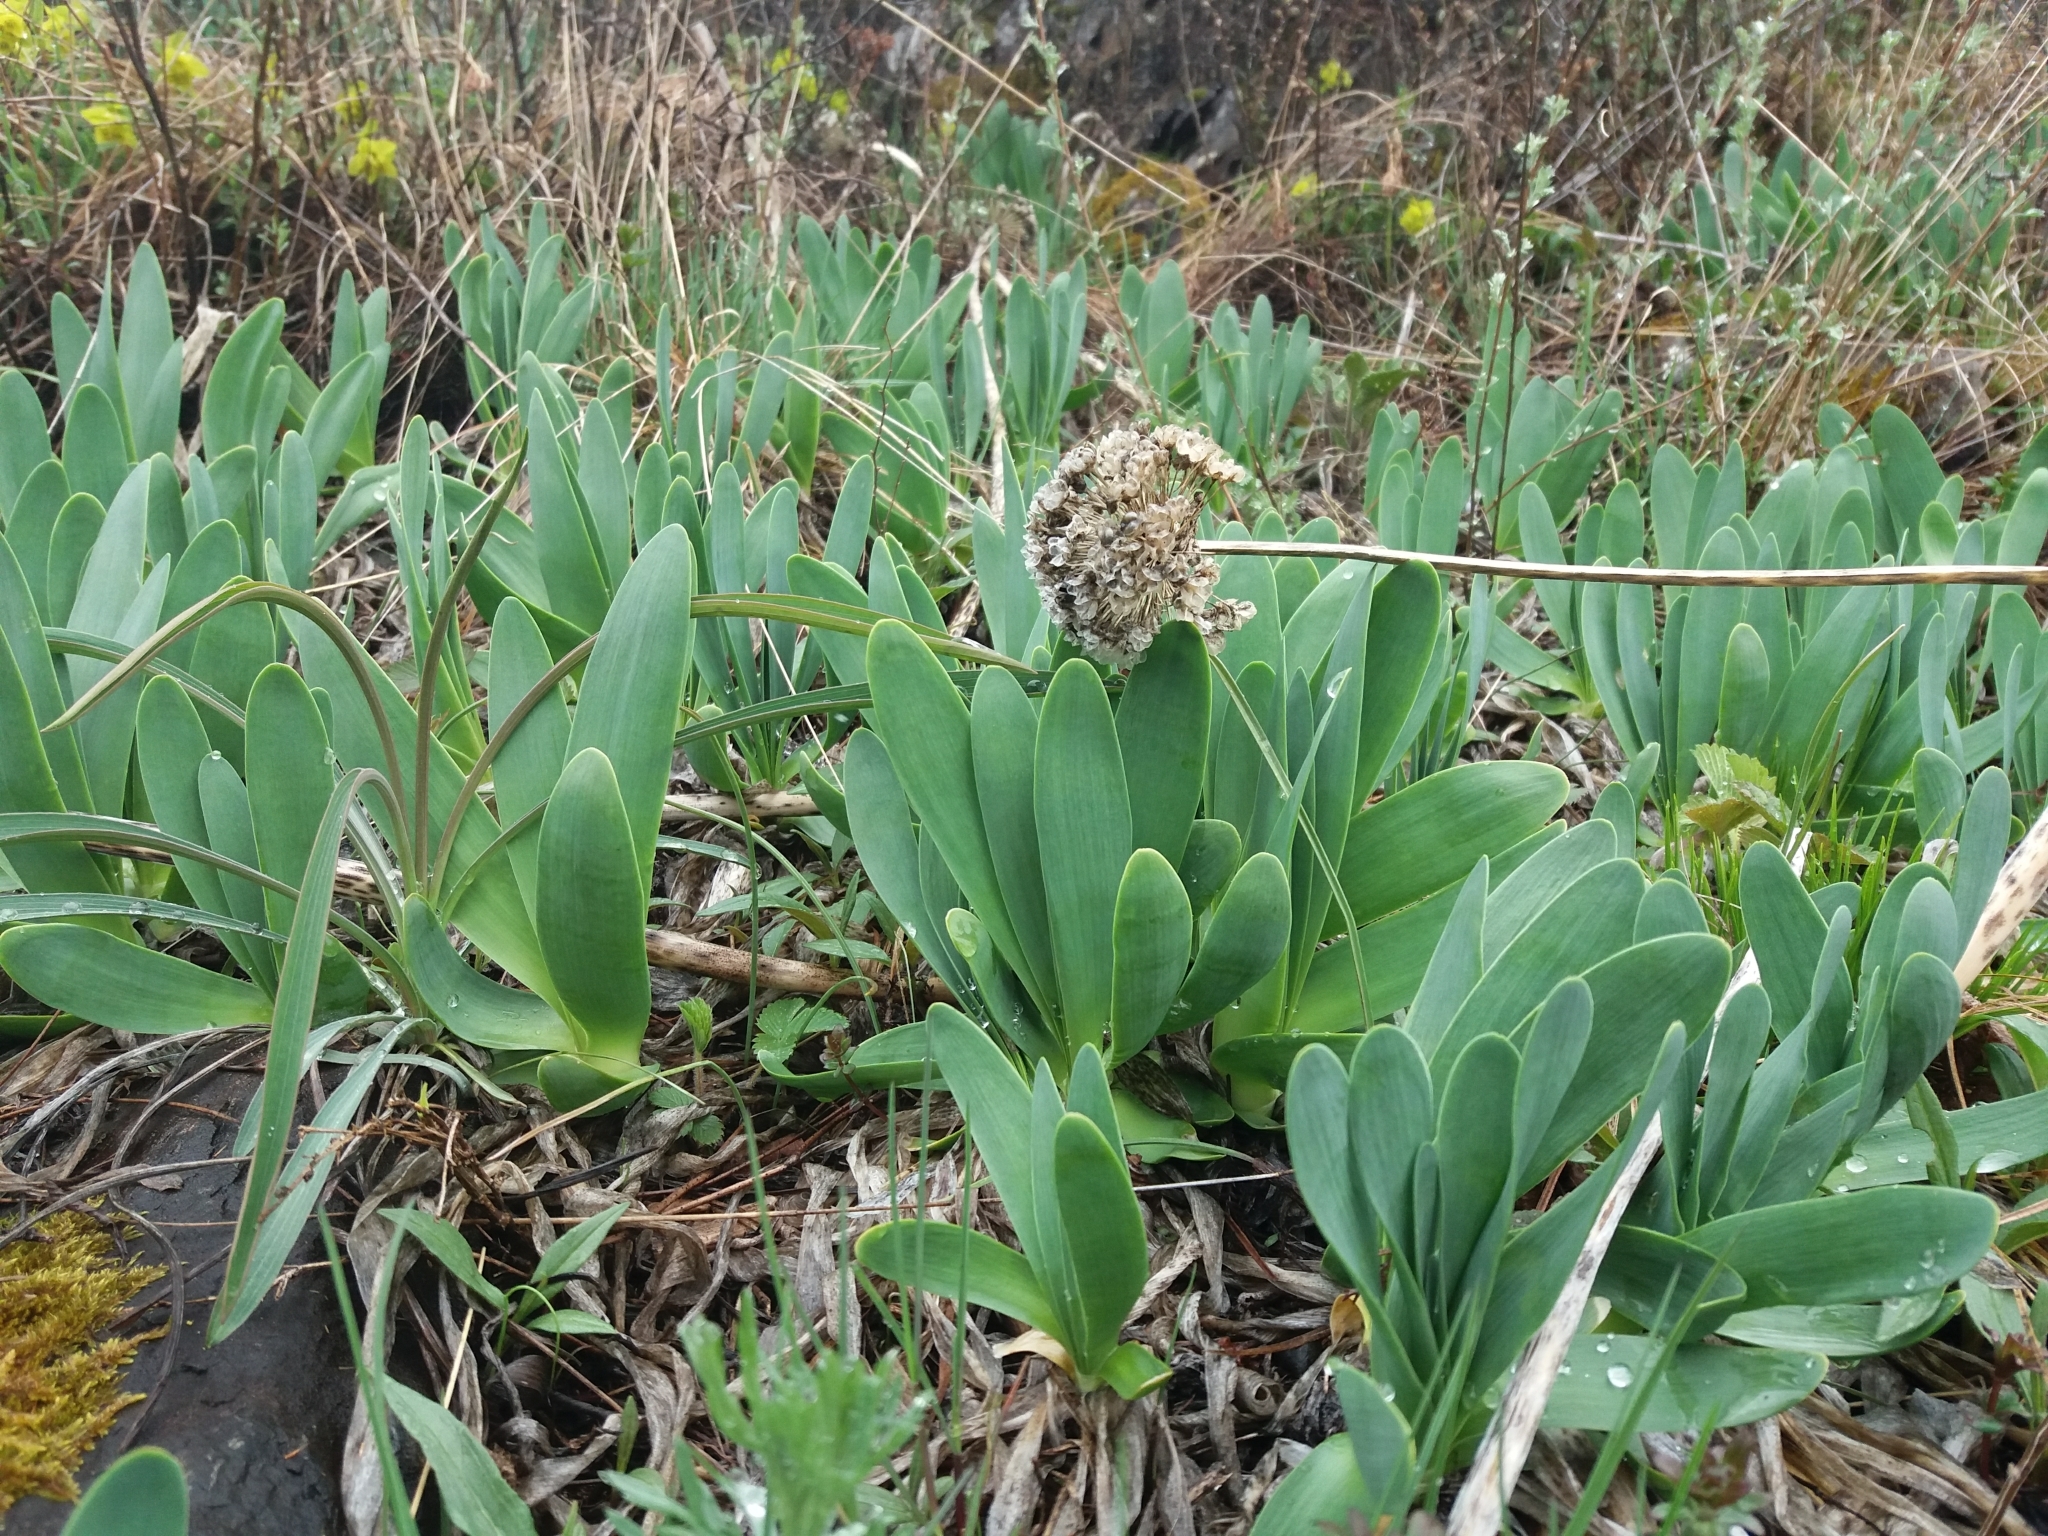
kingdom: Plantae
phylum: Tracheophyta
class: Liliopsida
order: Asparagales
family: Amaryllidaceae
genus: Allium
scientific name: Allium nutans
